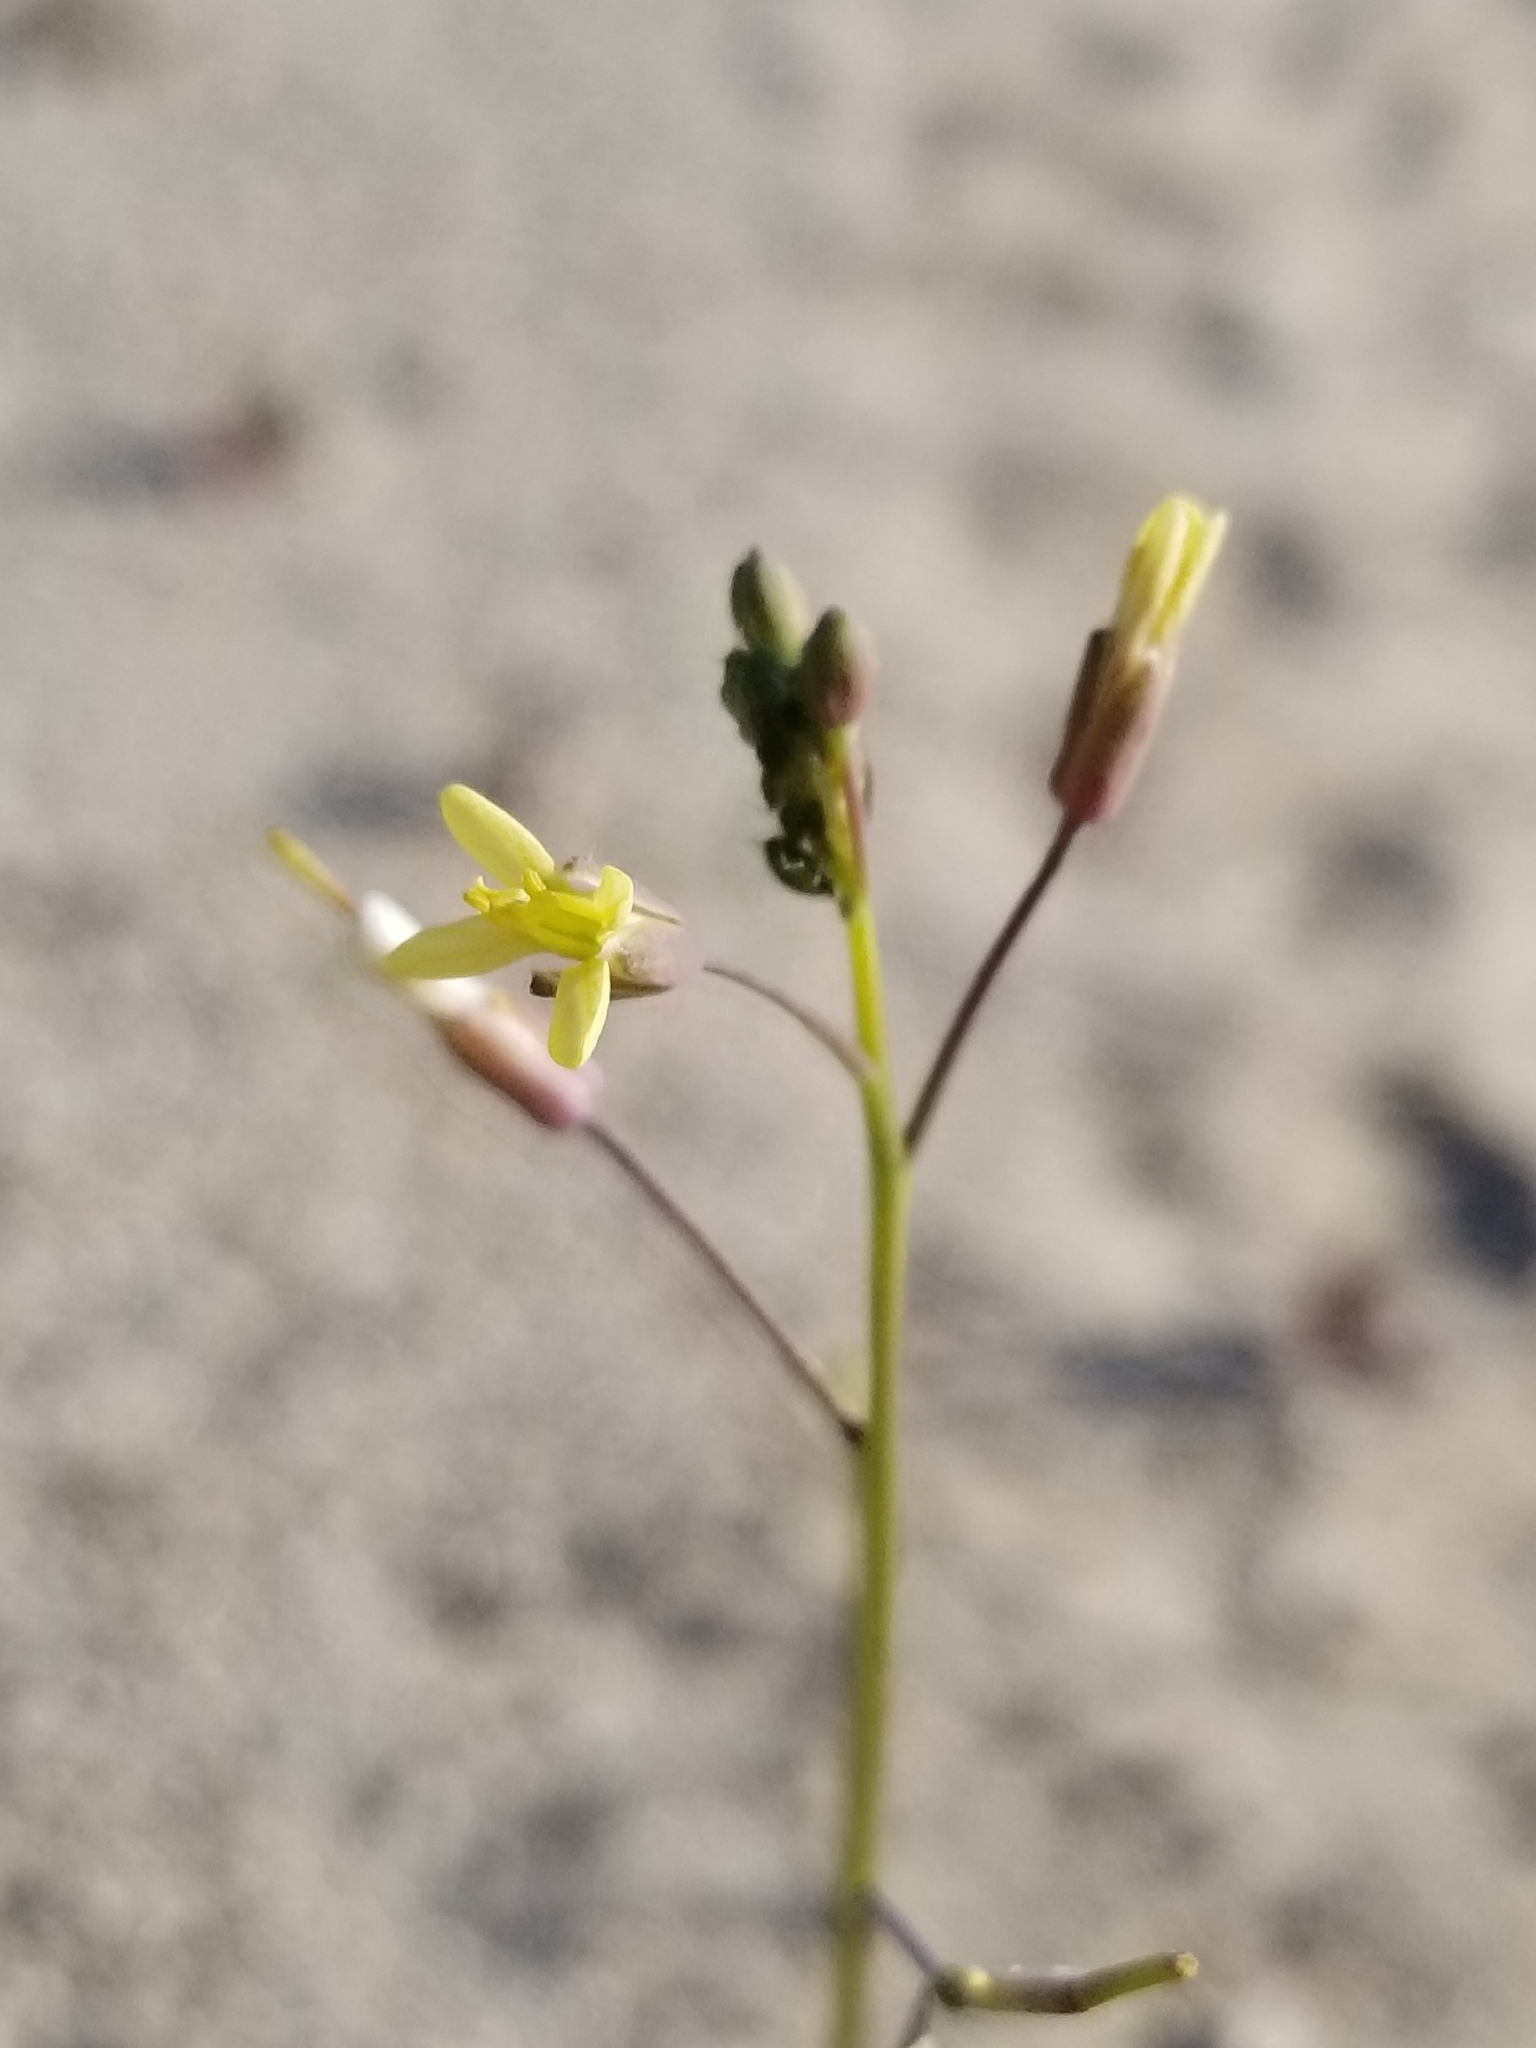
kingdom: Plantae
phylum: Tracheophyta
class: Magnoliopsida
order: Brassicales
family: Brassicaceae
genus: Brassica
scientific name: Brassica tournefortii
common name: Pale cabbage
